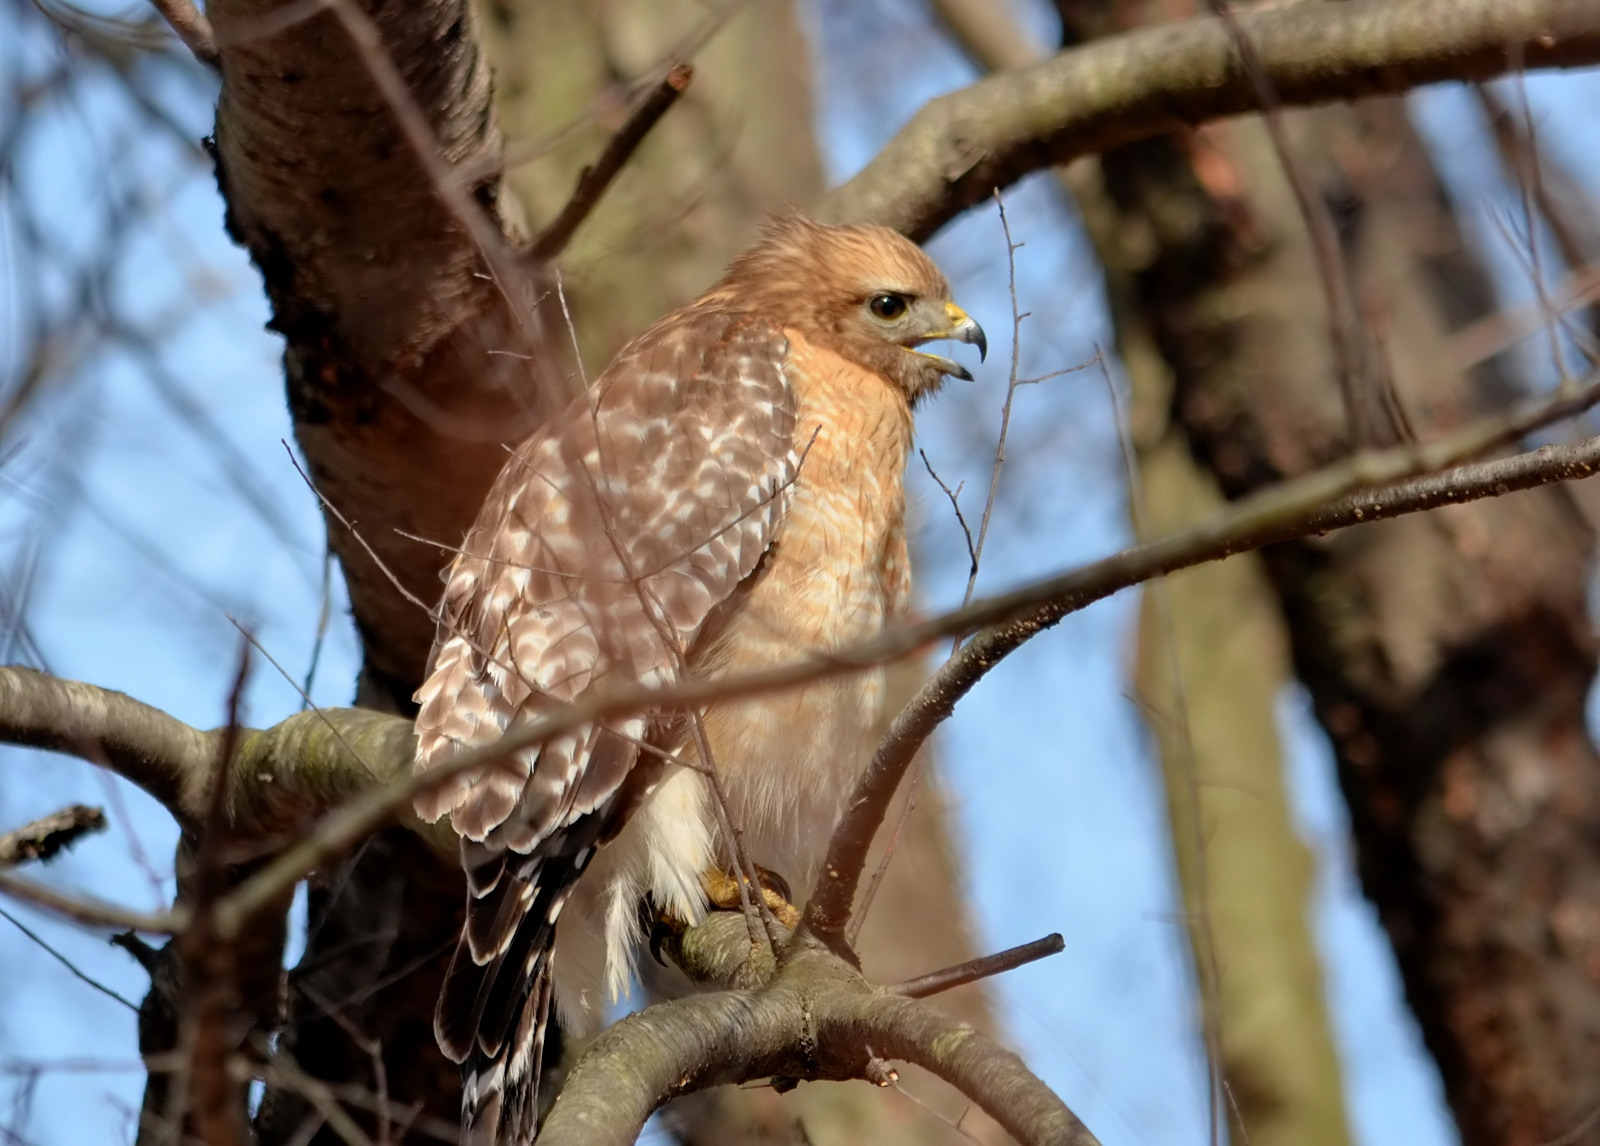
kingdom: Animalia
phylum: Chordata
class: Aves
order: Accipitriformes
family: Accipitridae
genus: Buteo
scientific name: Buteo lineatus
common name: Red-shouldered hawk
